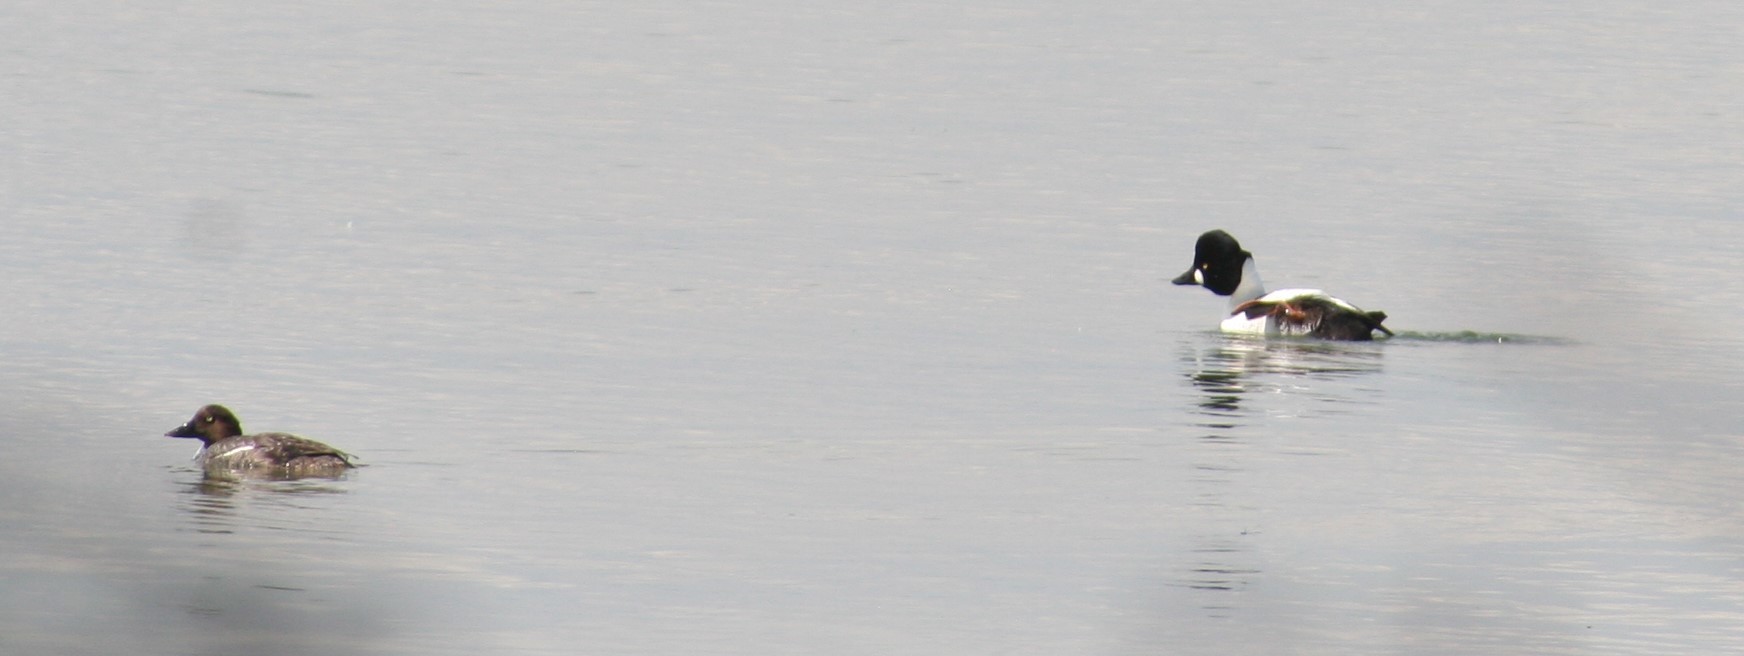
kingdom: Animalia
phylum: Chordata
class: Aves
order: Anseriformes
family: Anatidae
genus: Bucephala
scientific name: Bucephala clangula
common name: Common goldeneye
